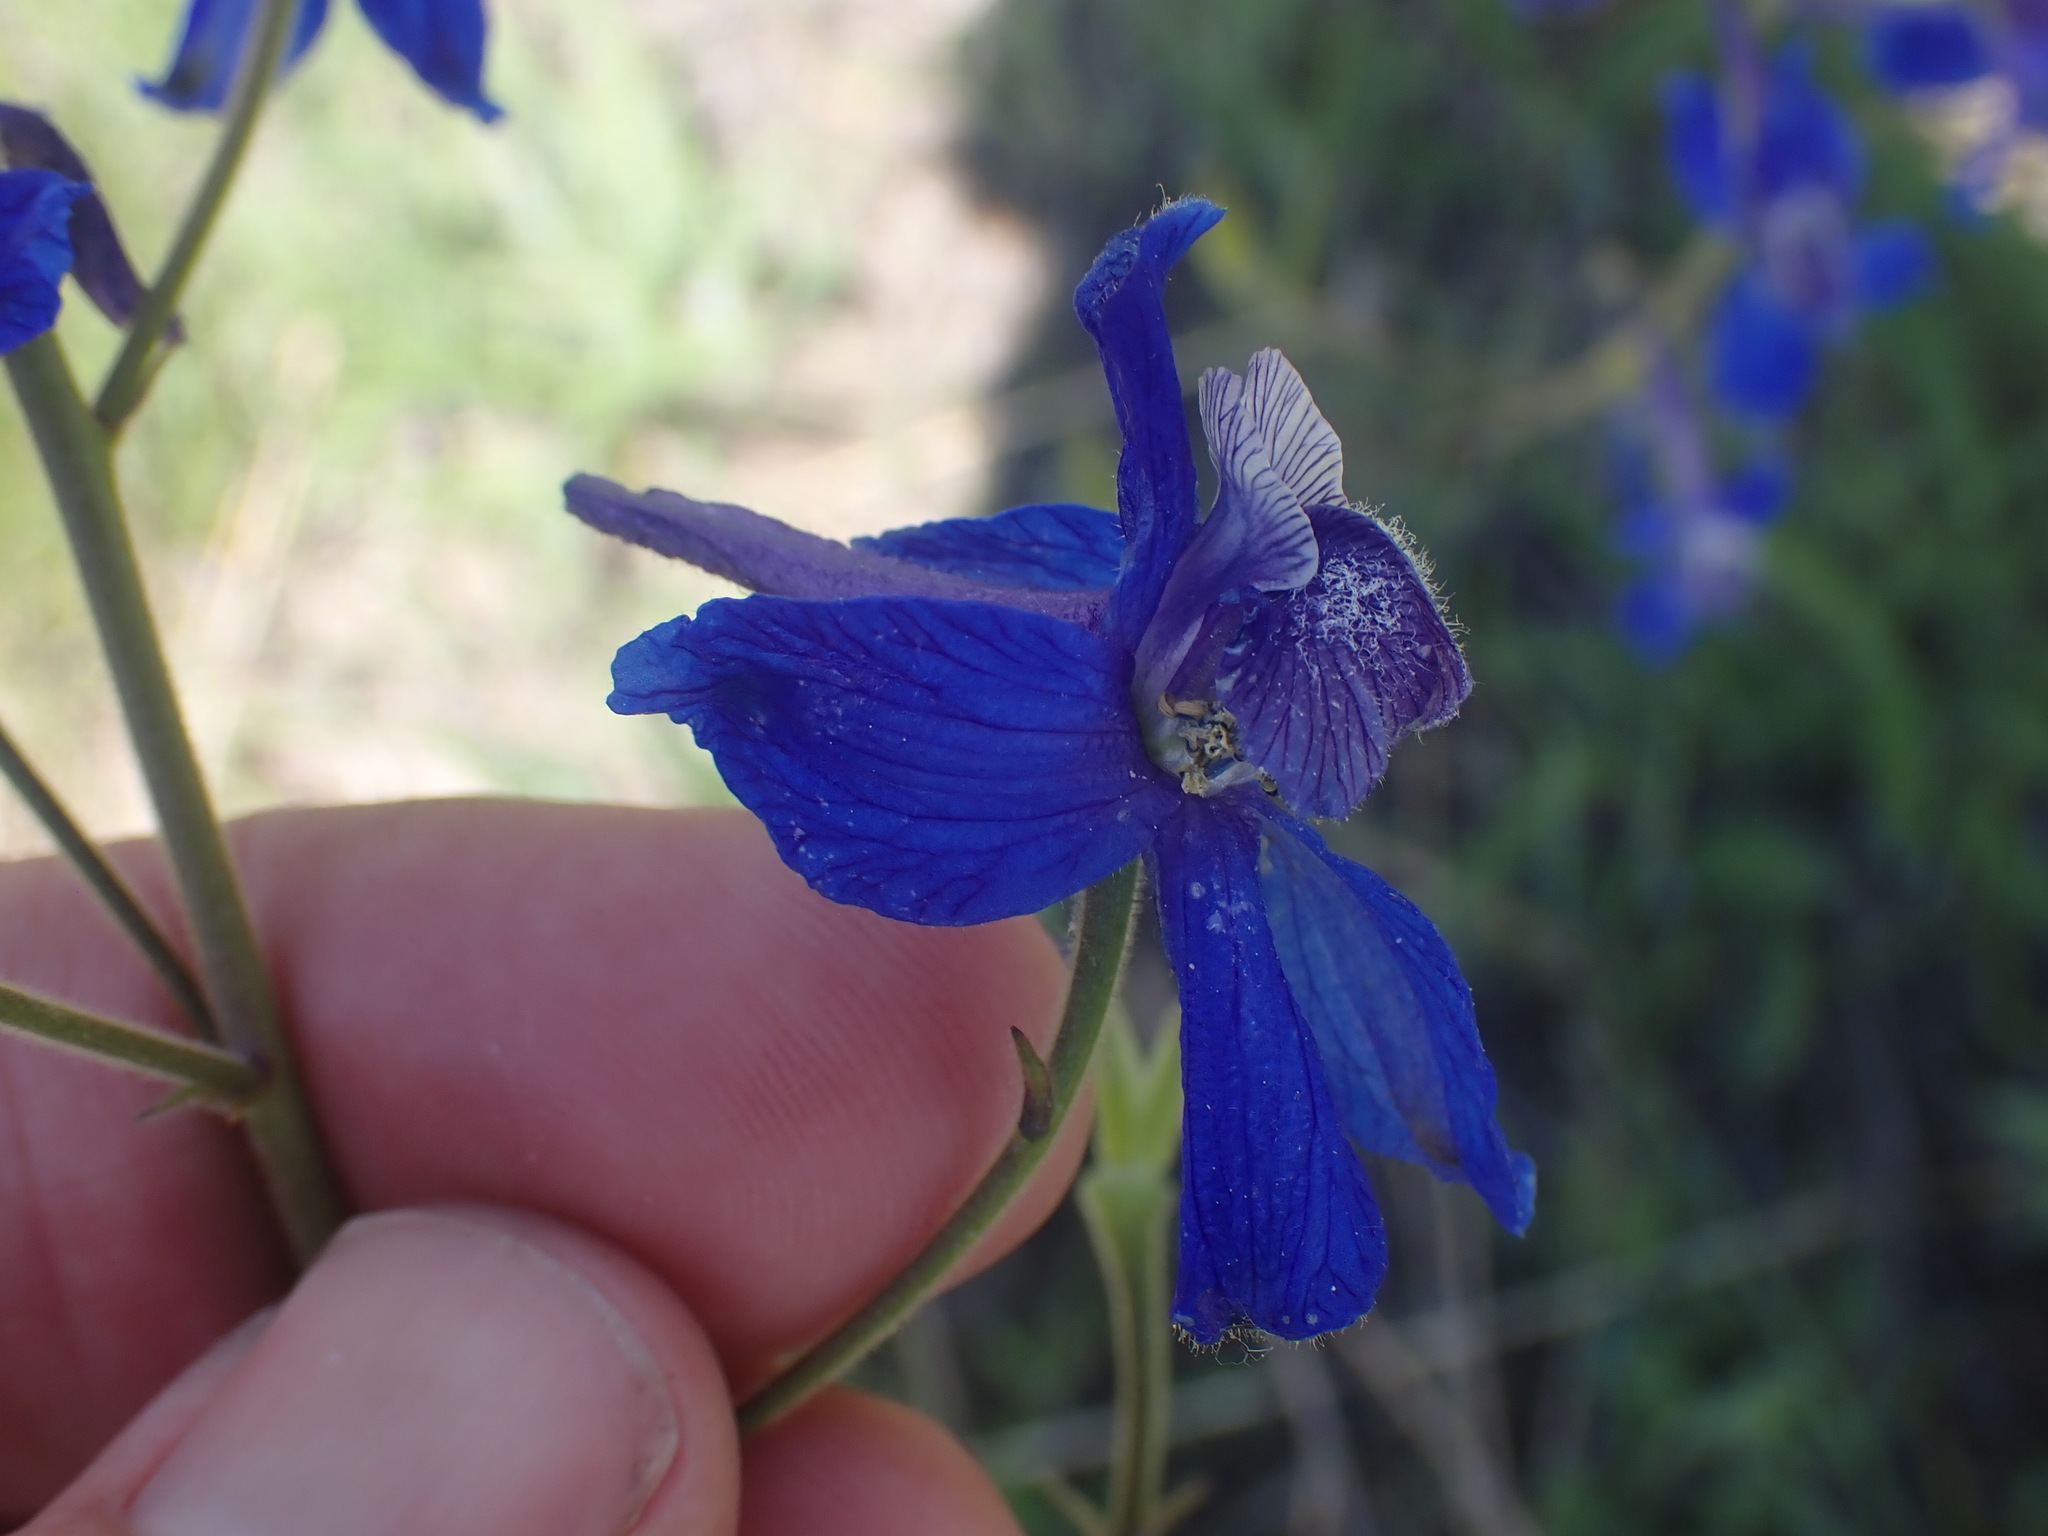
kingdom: Plantae
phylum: Tracheophyta
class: Magnoliopsida
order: Ranunculales
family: Ranunculaceae
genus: Delphinium
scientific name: Delphinium nuttallianum
